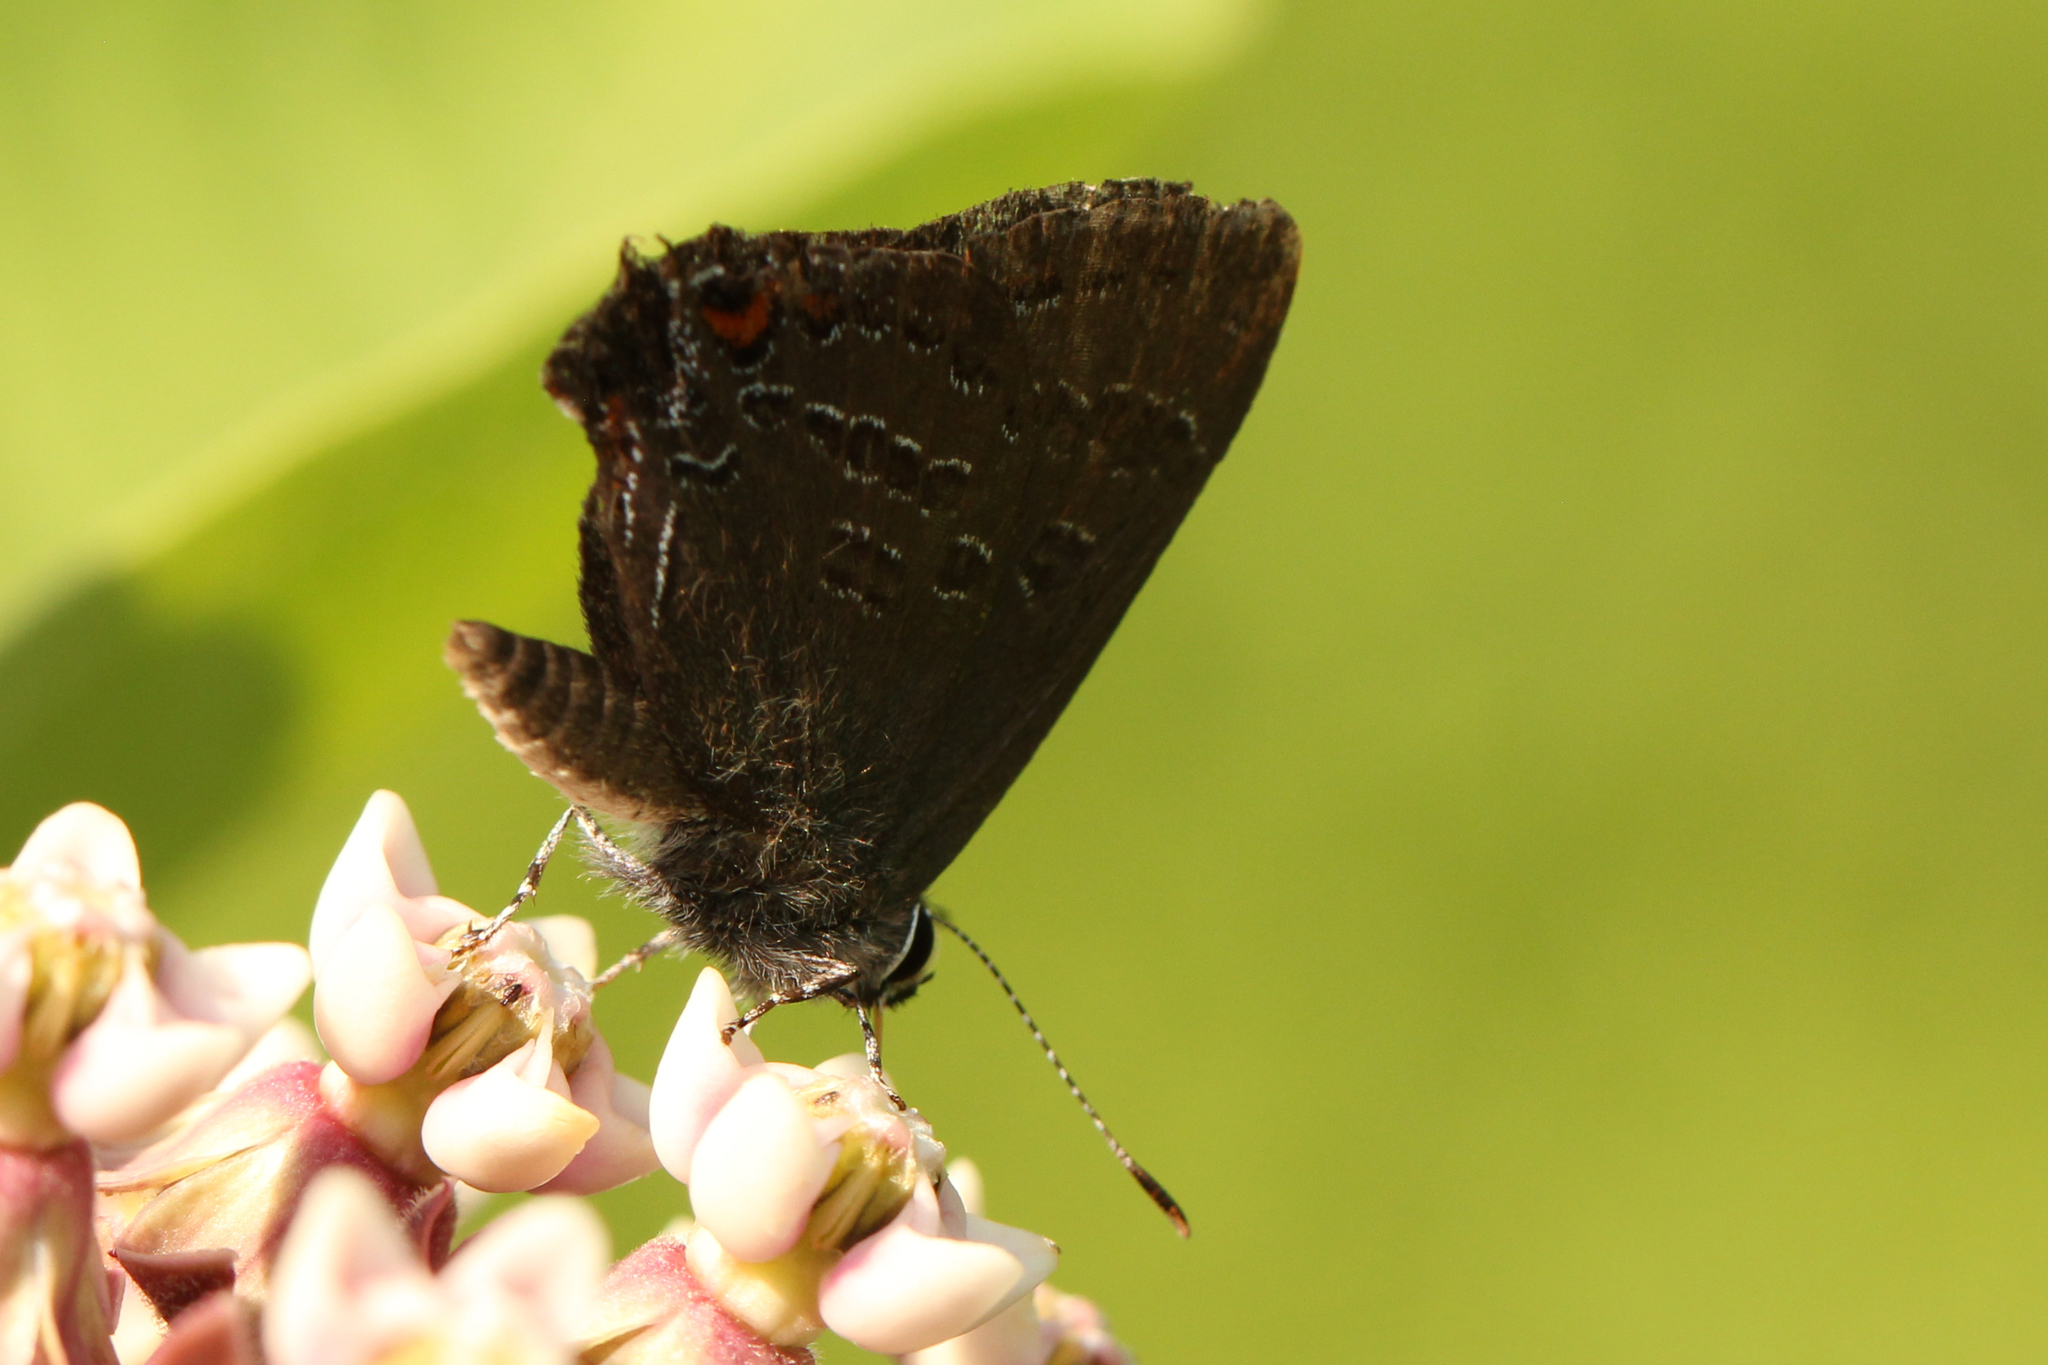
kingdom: Animalia
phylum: Arthropoda
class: Insecta
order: Lepidoptera
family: Lycaenidae
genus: Satyrium
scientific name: Satyrium calanus
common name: Banded hairstreak
